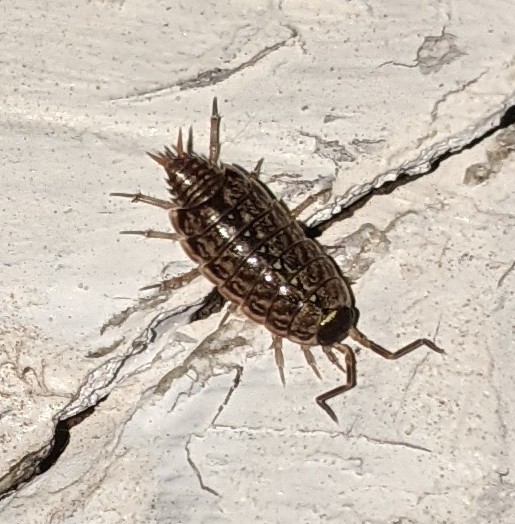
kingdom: Animalia
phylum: Arthropoda
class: Malacostraca
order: Isopoda
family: Philosciidae
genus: Philoscia
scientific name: Philoscia muscorum
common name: Common striped woodlouse
